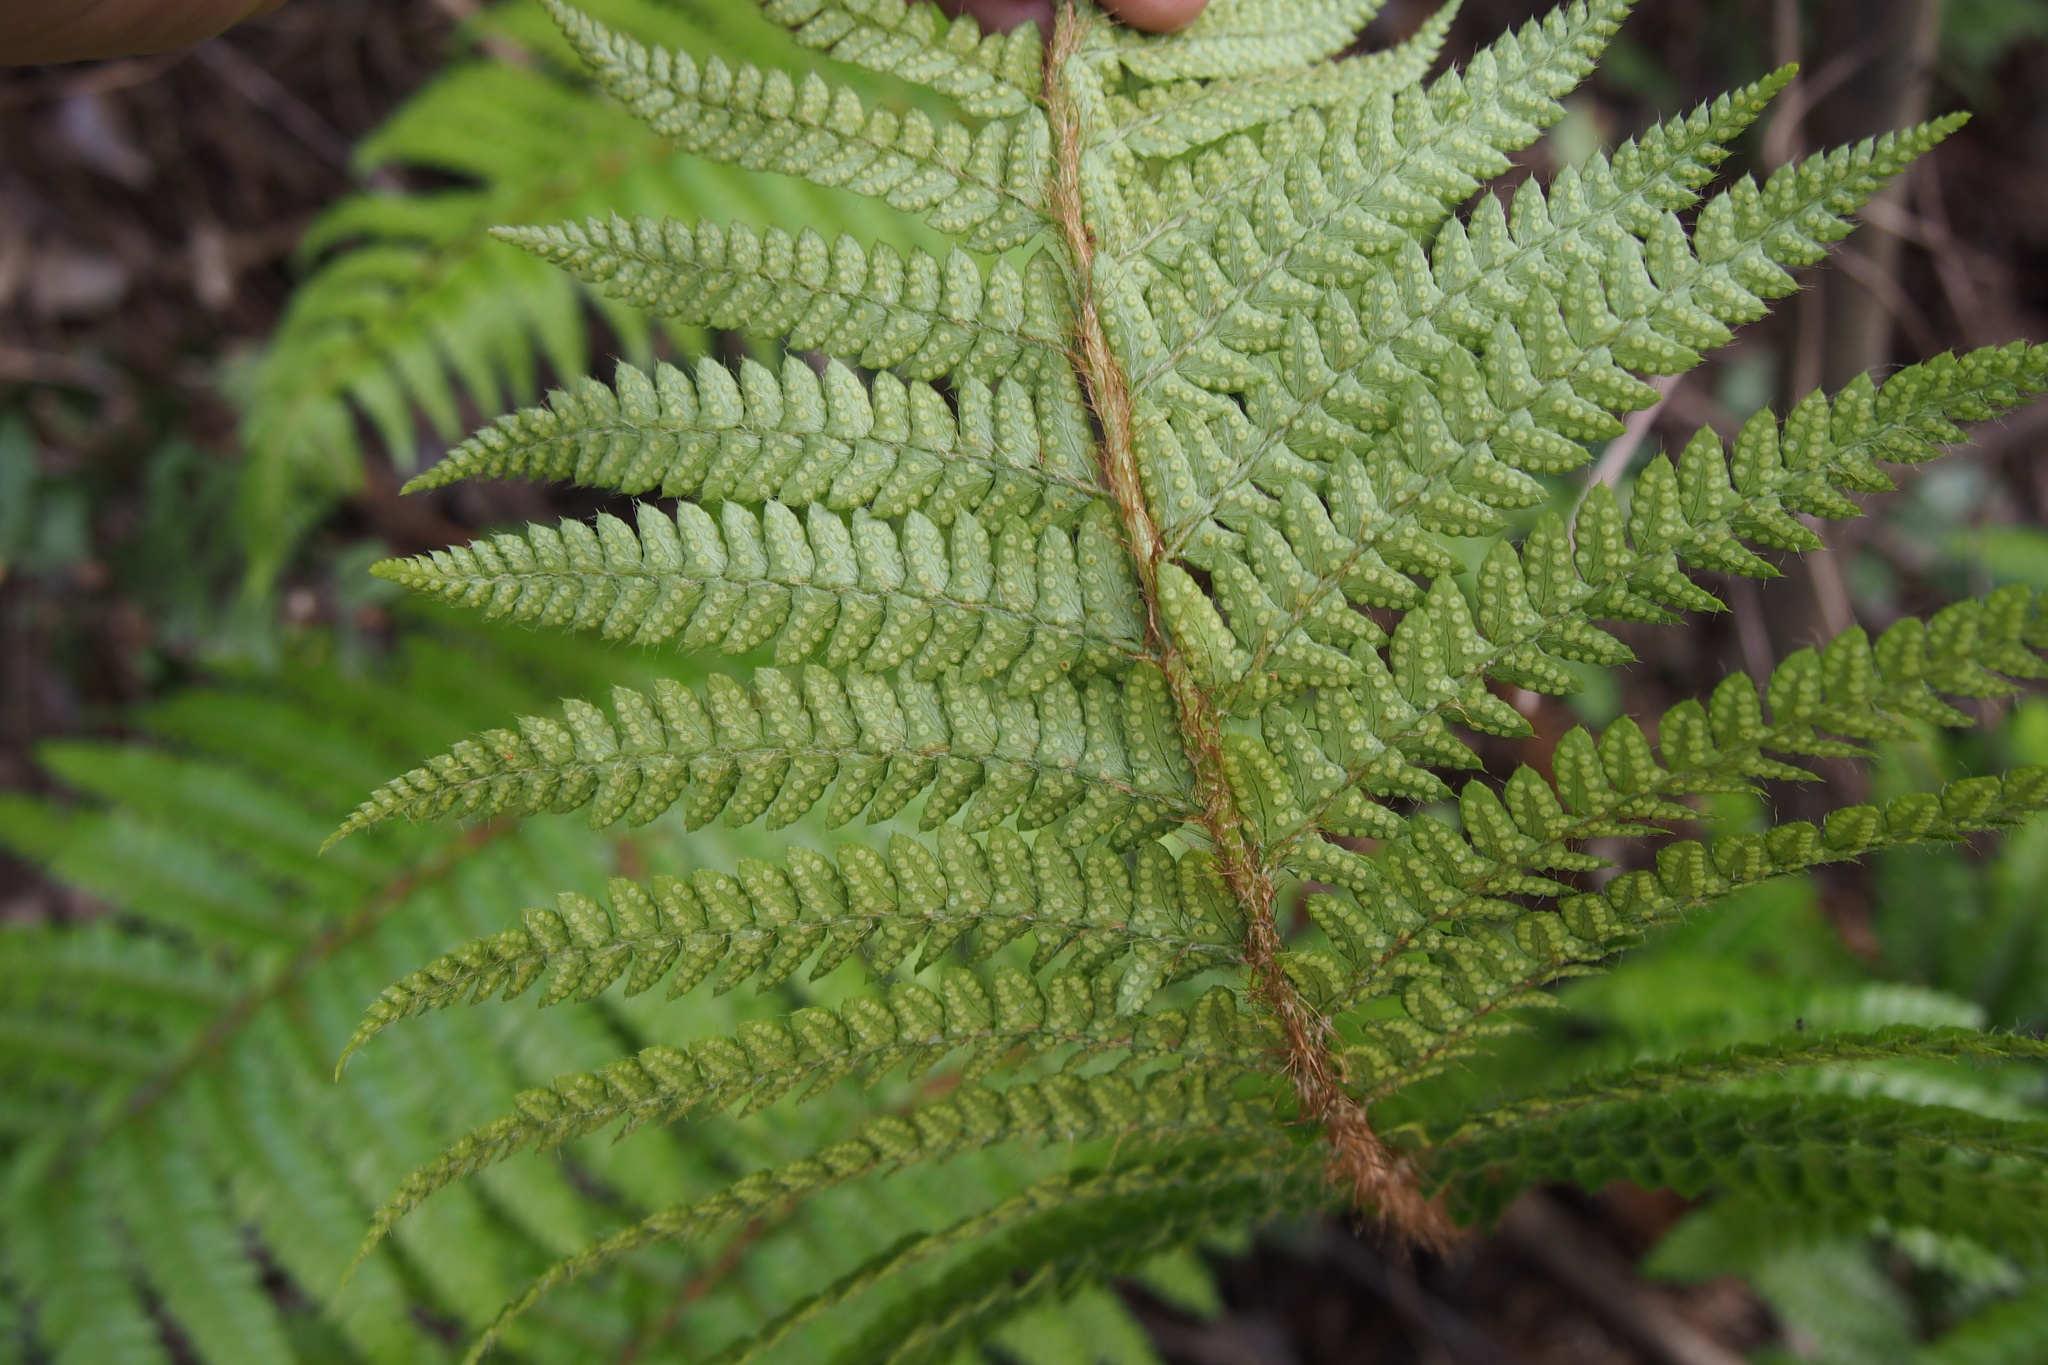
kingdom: Plantae
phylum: Tracheophyta
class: Polypodiopsida
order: Polypodiales
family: Dryopteridaceae
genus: Polystichum
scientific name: Polystichum luctuosum
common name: Korean rockfern
